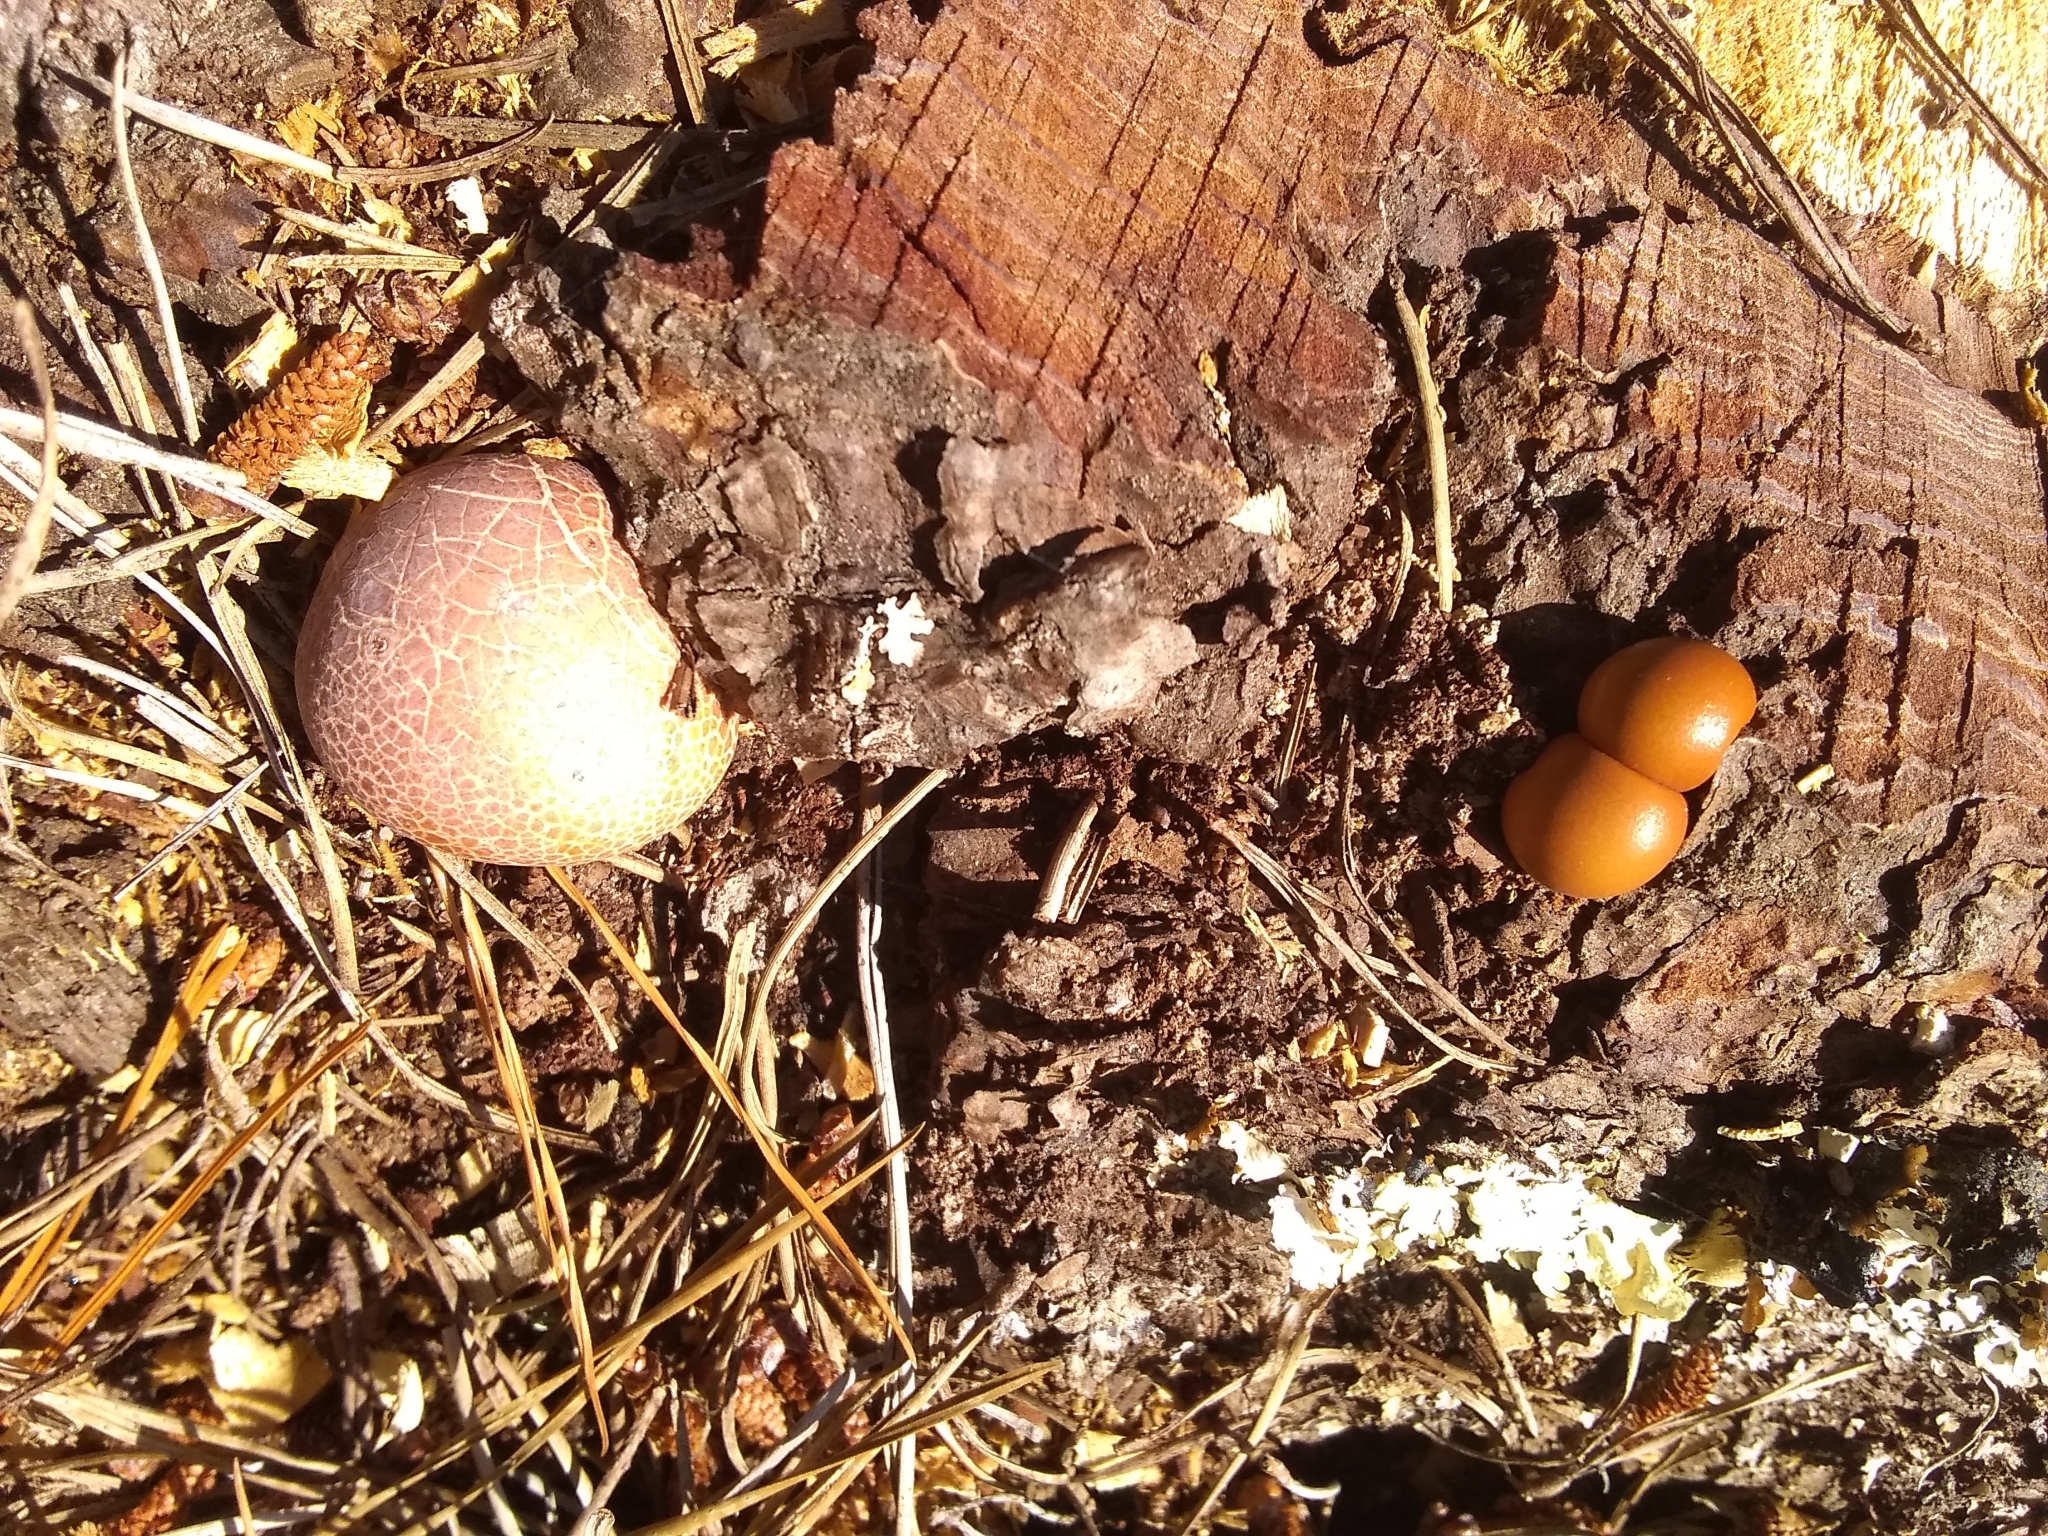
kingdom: Fungi
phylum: Basidiomycota
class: Agaricomycetes
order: Polyporales
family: Polyporaceae
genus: Cryptoporus
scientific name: Cryptoporus volvatus
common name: Veiled polypore
